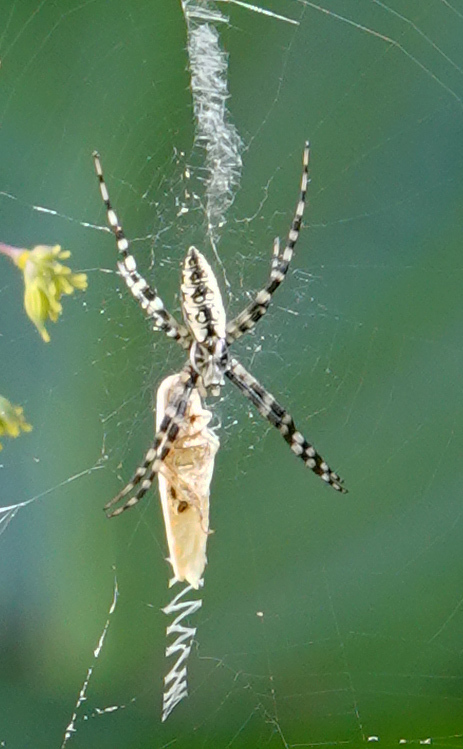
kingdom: Animalia
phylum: Arthropoda
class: Arachnida
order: Araneae
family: Araneidae
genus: Argiope
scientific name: Argiope aurantia
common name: Orb weavers
